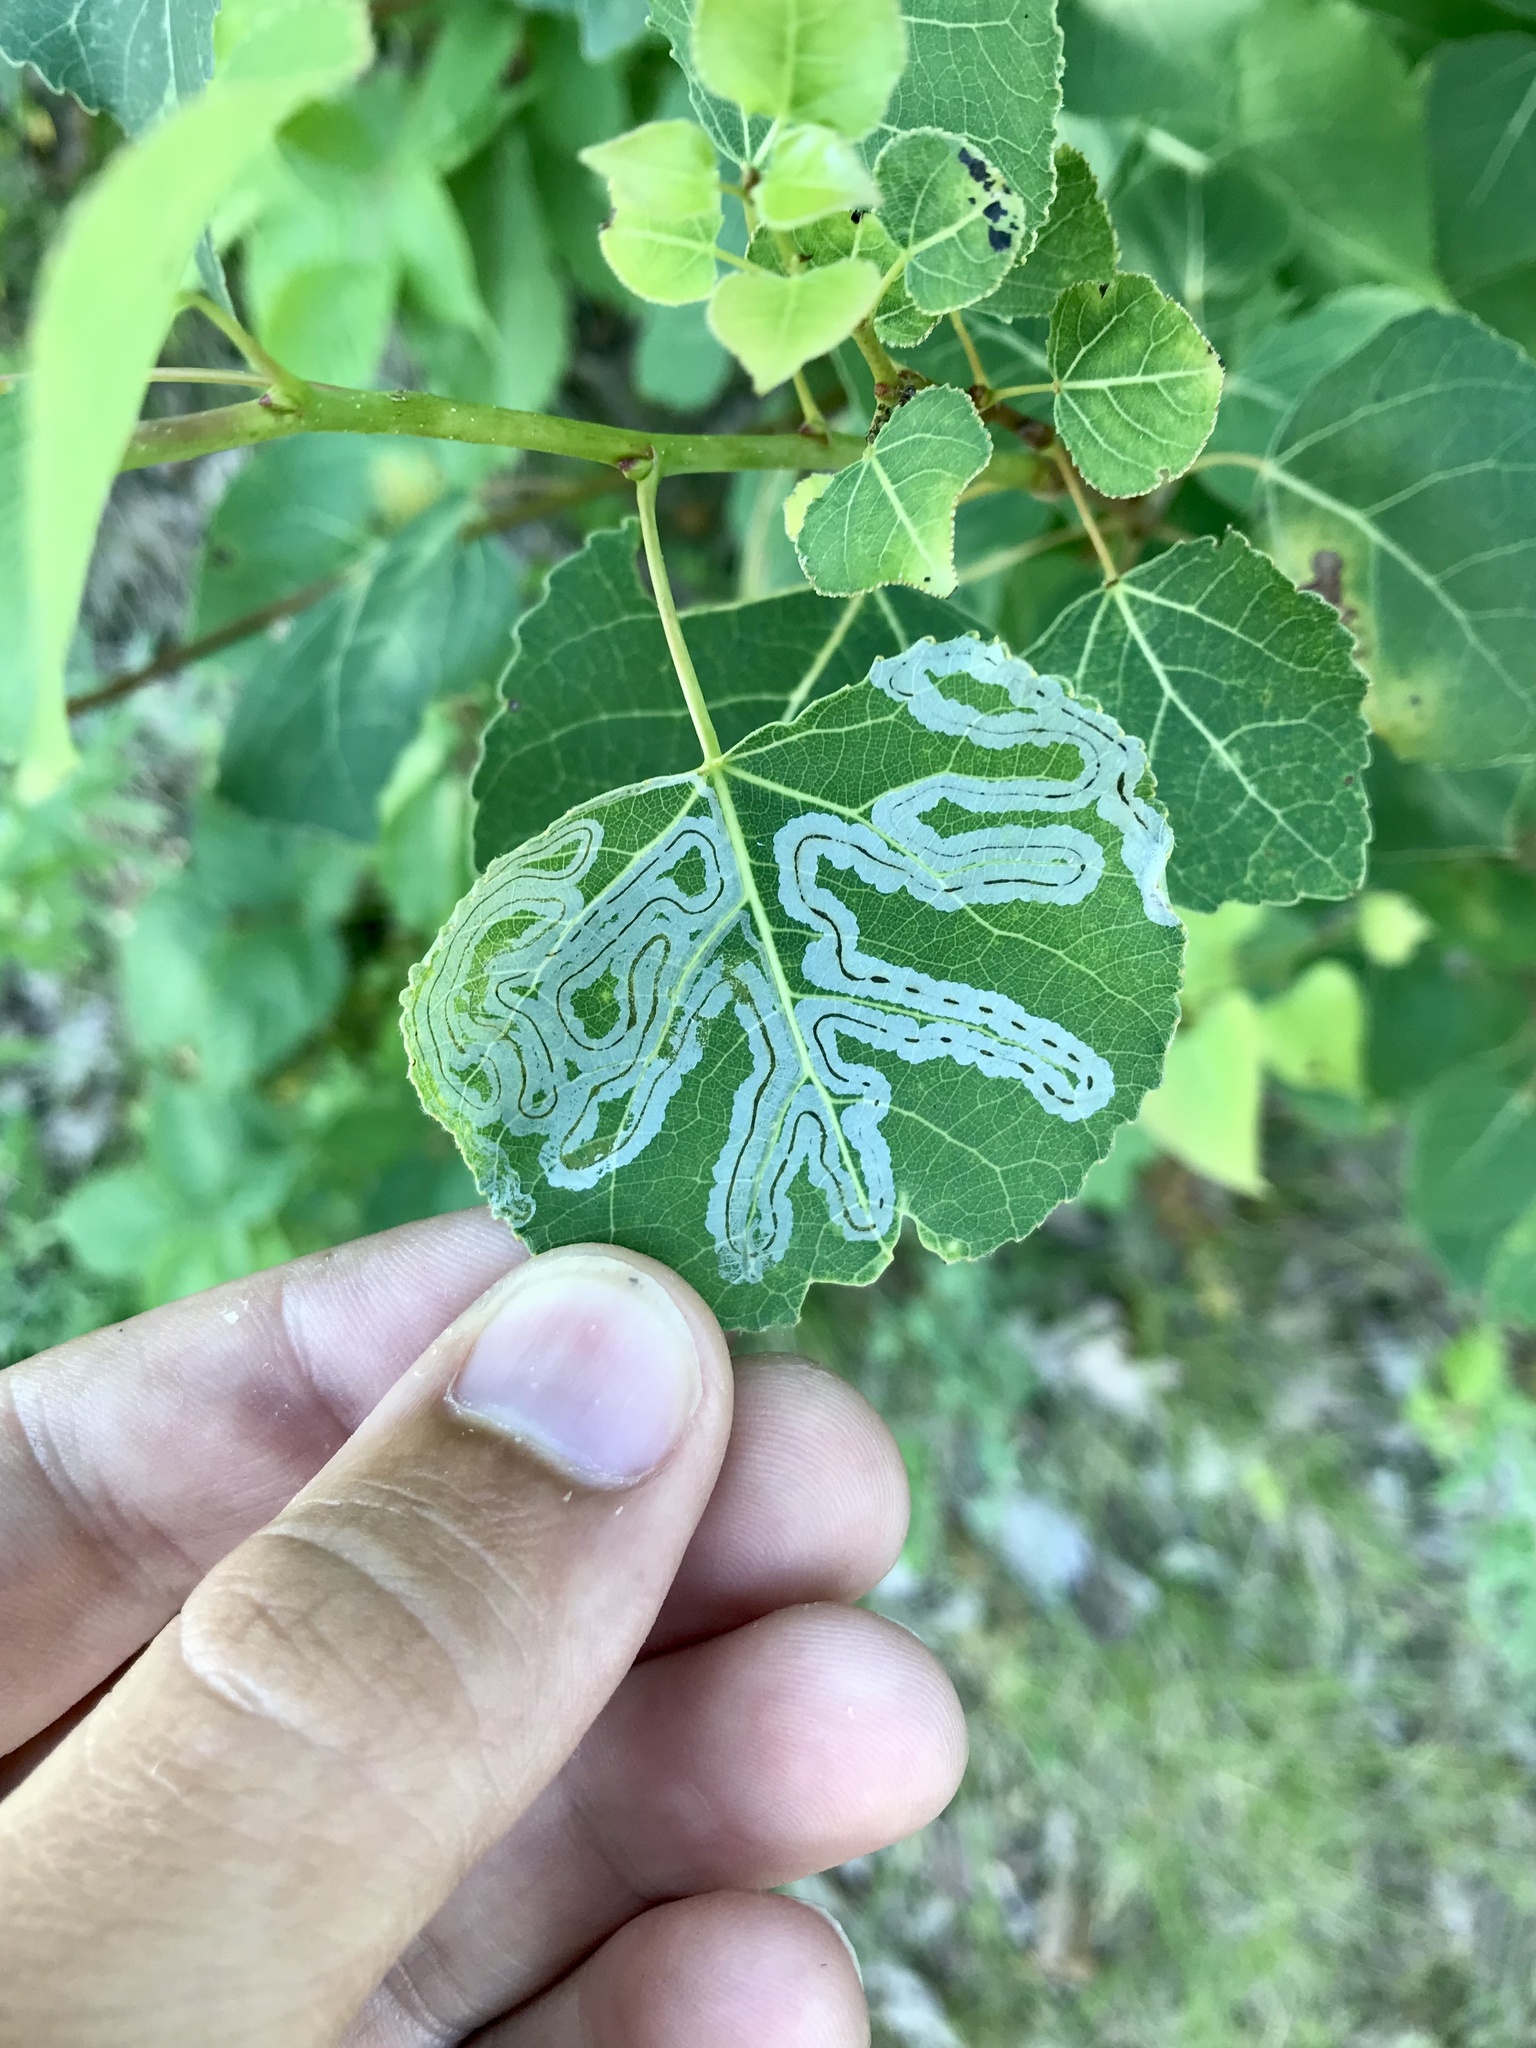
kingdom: Animalia
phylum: Arthropoda
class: Insecta
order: Lepidoptera
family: Gracillariidae
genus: Phyllocnistis
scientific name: Phyllocnistis populiella
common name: Aspen serpentine leafminer moth
